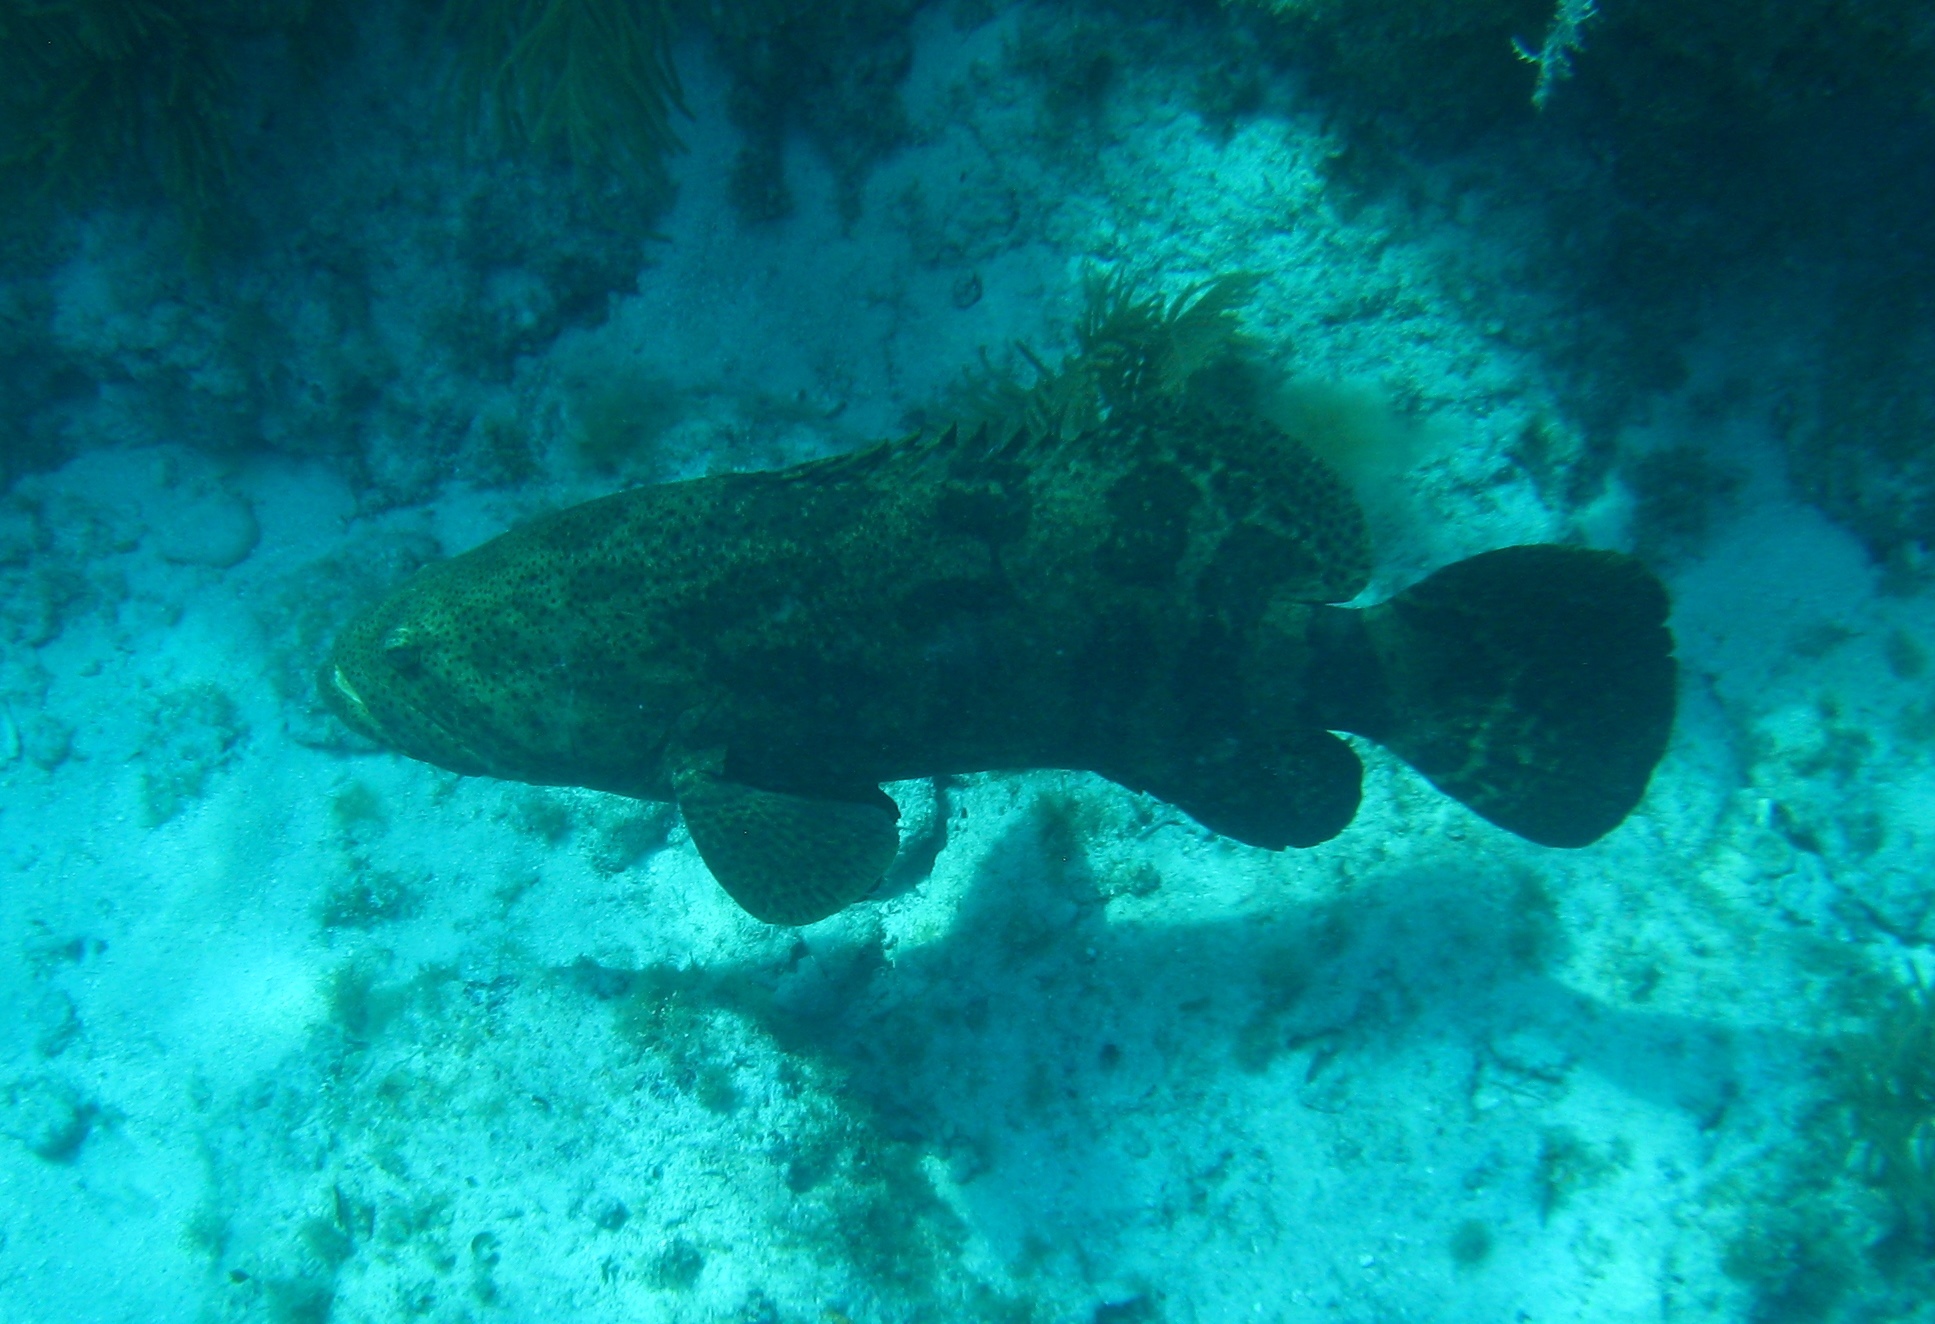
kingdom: Animalia
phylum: Chordata
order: Perciformes
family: Serranidae
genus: Epinephelus
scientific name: Epinephelus itajara
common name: Jewfish
